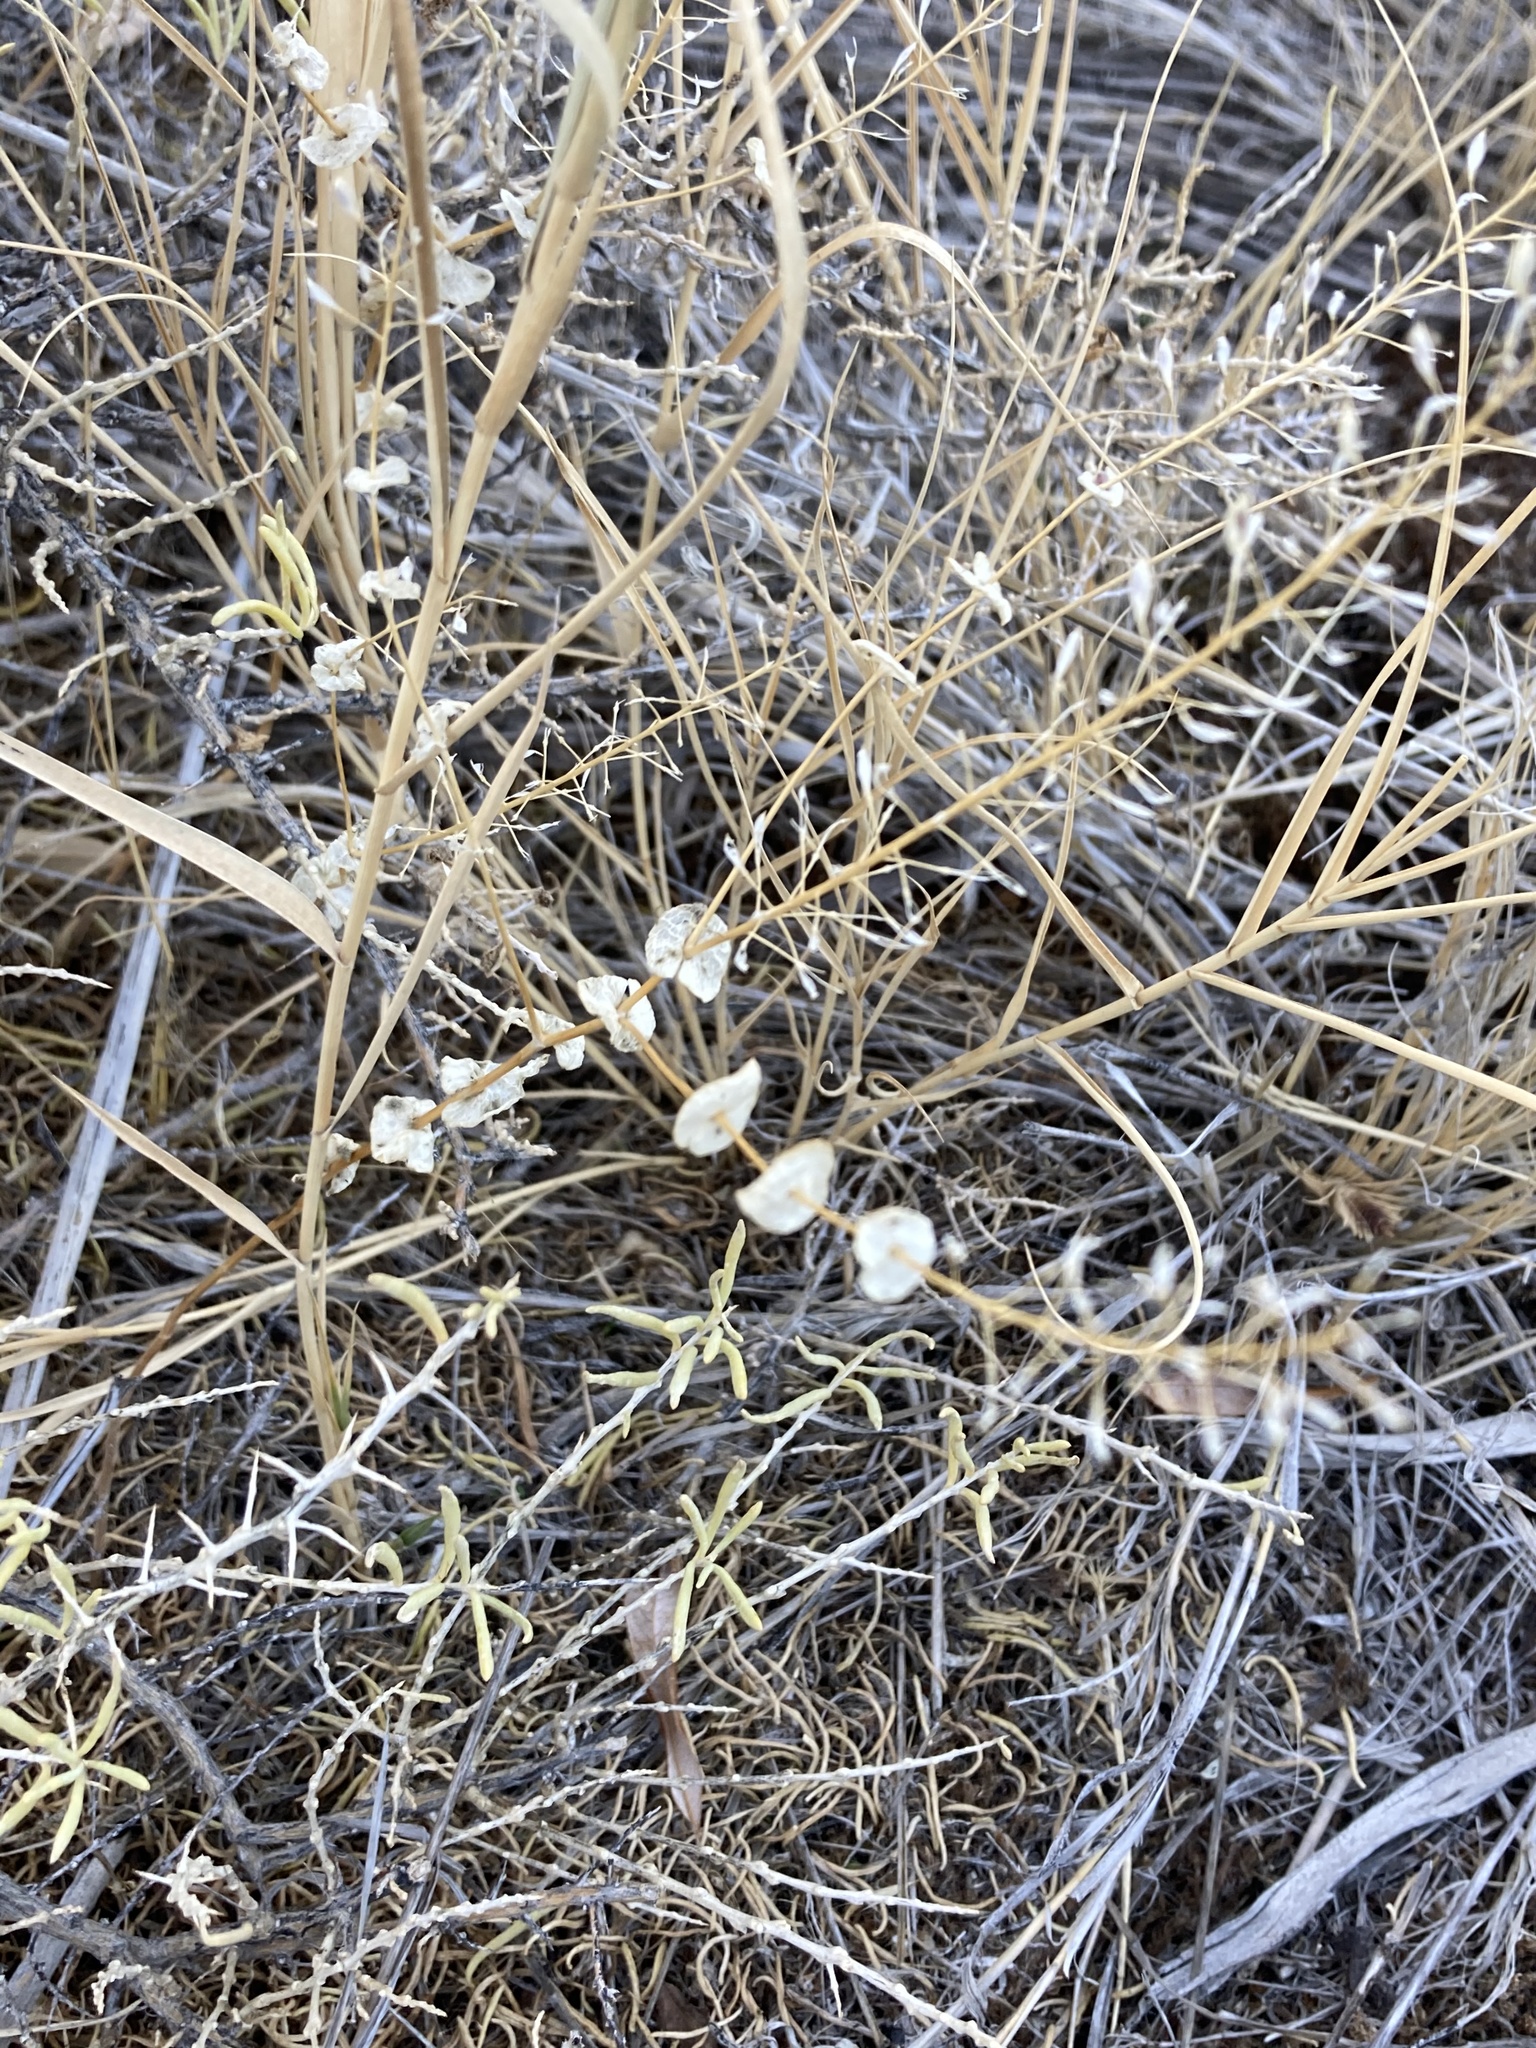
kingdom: Plantae
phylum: Tracheophyta
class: Magnoliopsida
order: Brassicales
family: Brassicaceae
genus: Lepidium
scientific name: Lepidium perfoliatum
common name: Perfoliate pepperwort
